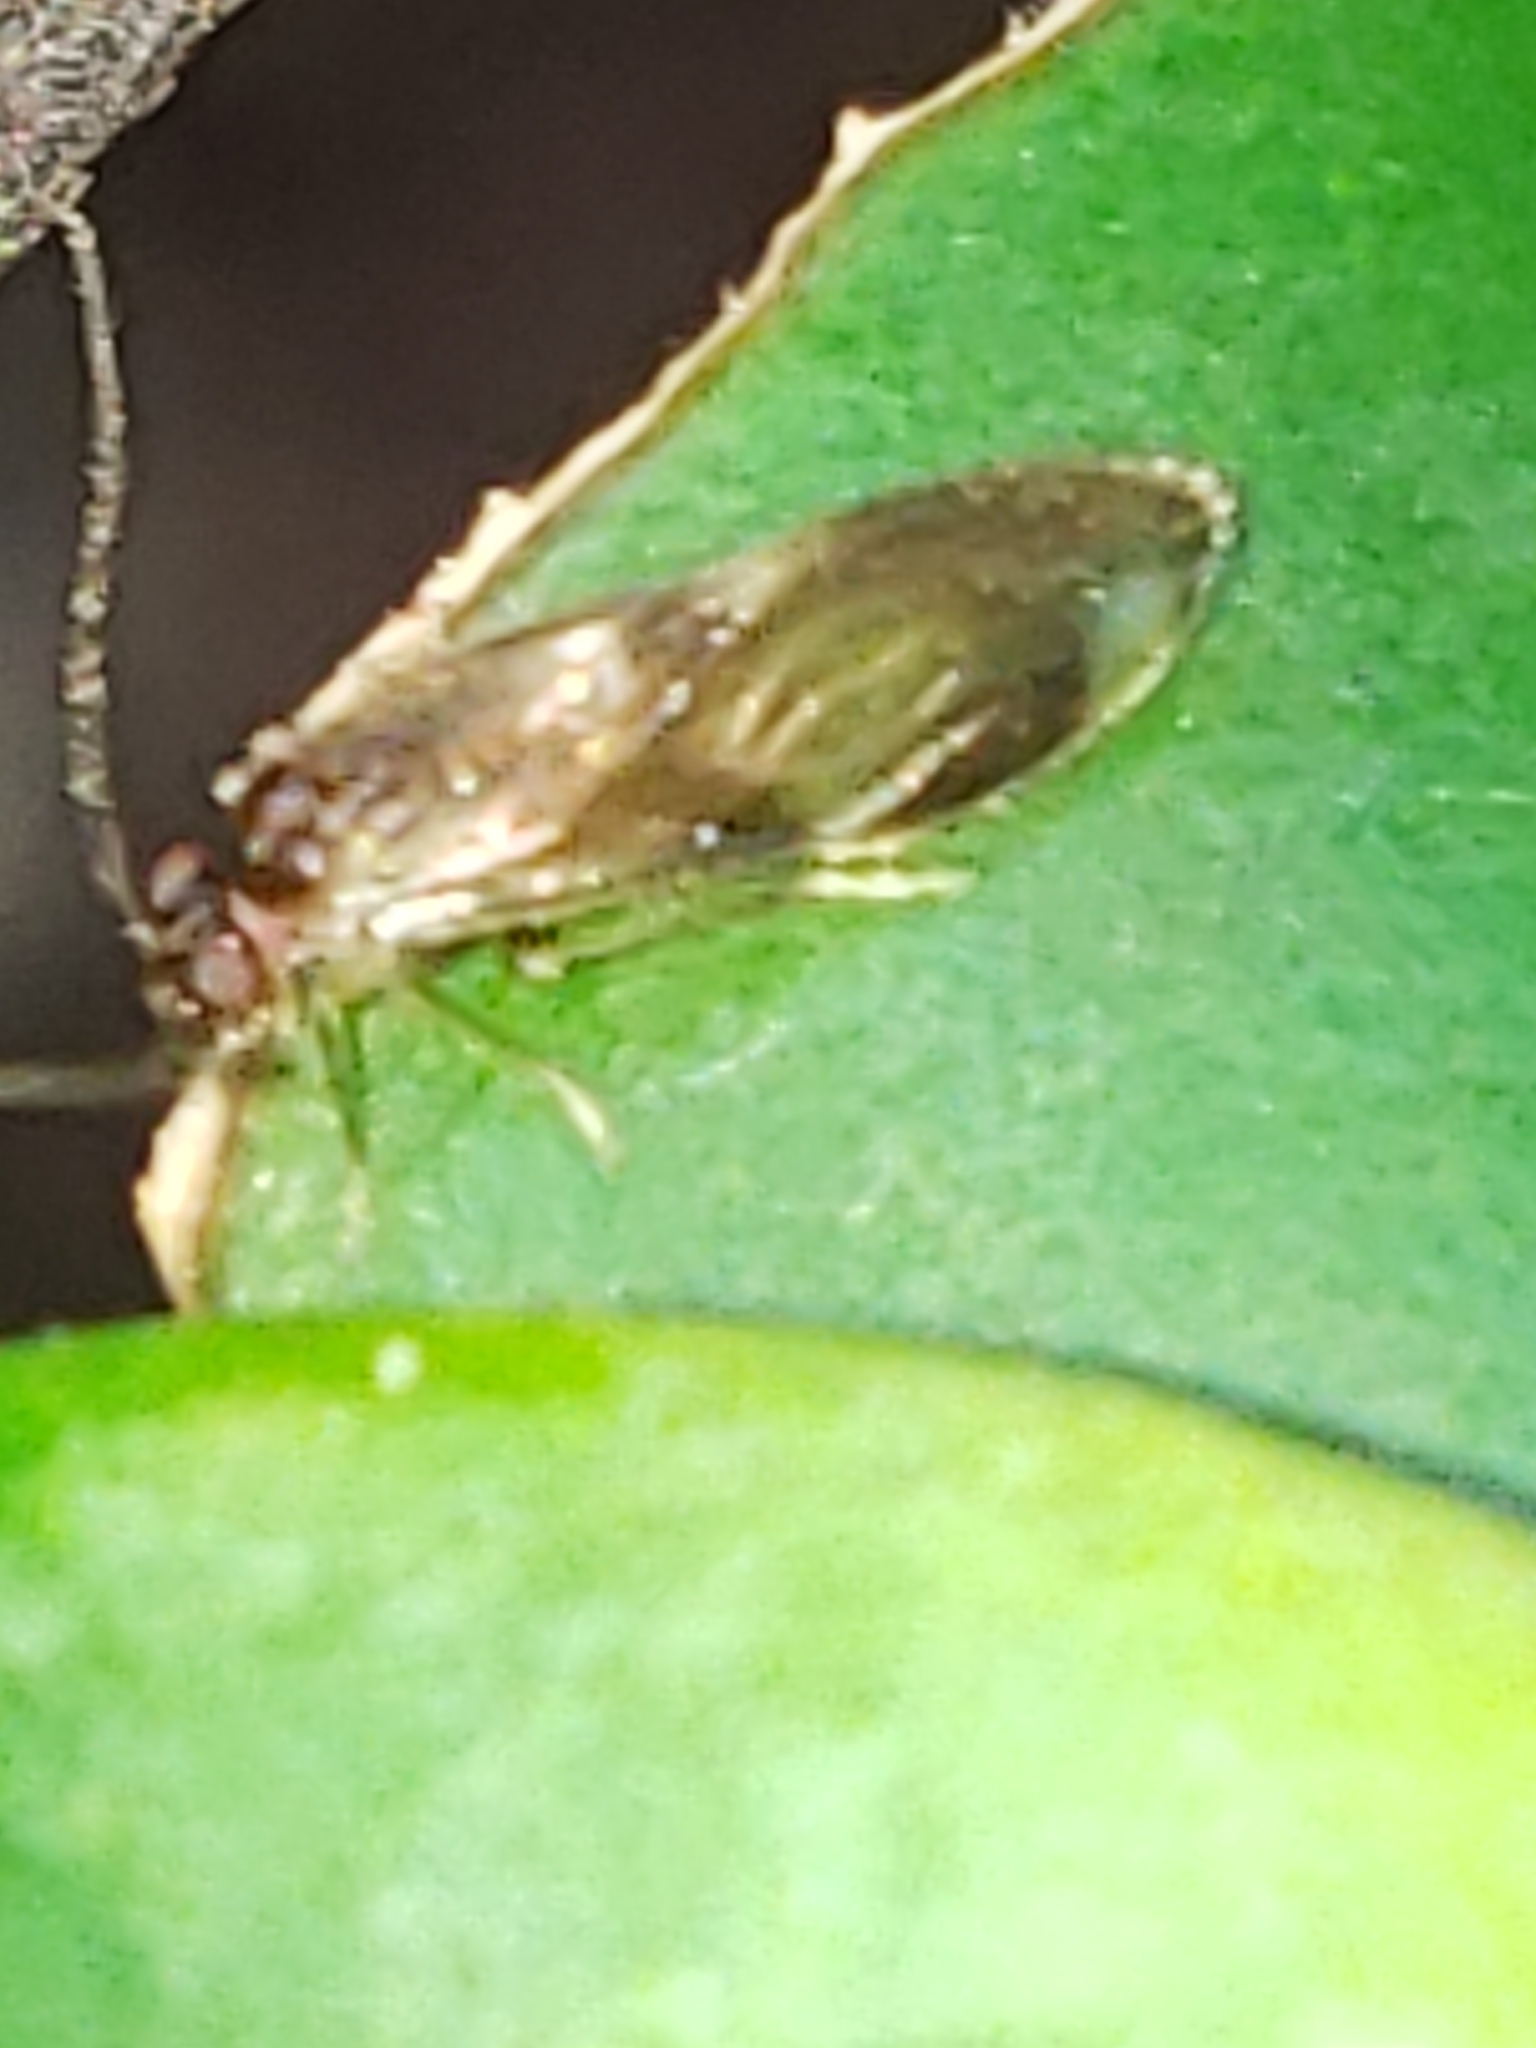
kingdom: Animalia
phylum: Arthropoda
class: Insecta
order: Psocodea
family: Amphipsocidae
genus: Polypsocus
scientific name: Polypsocus corruptus
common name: Corrupt barklouse
